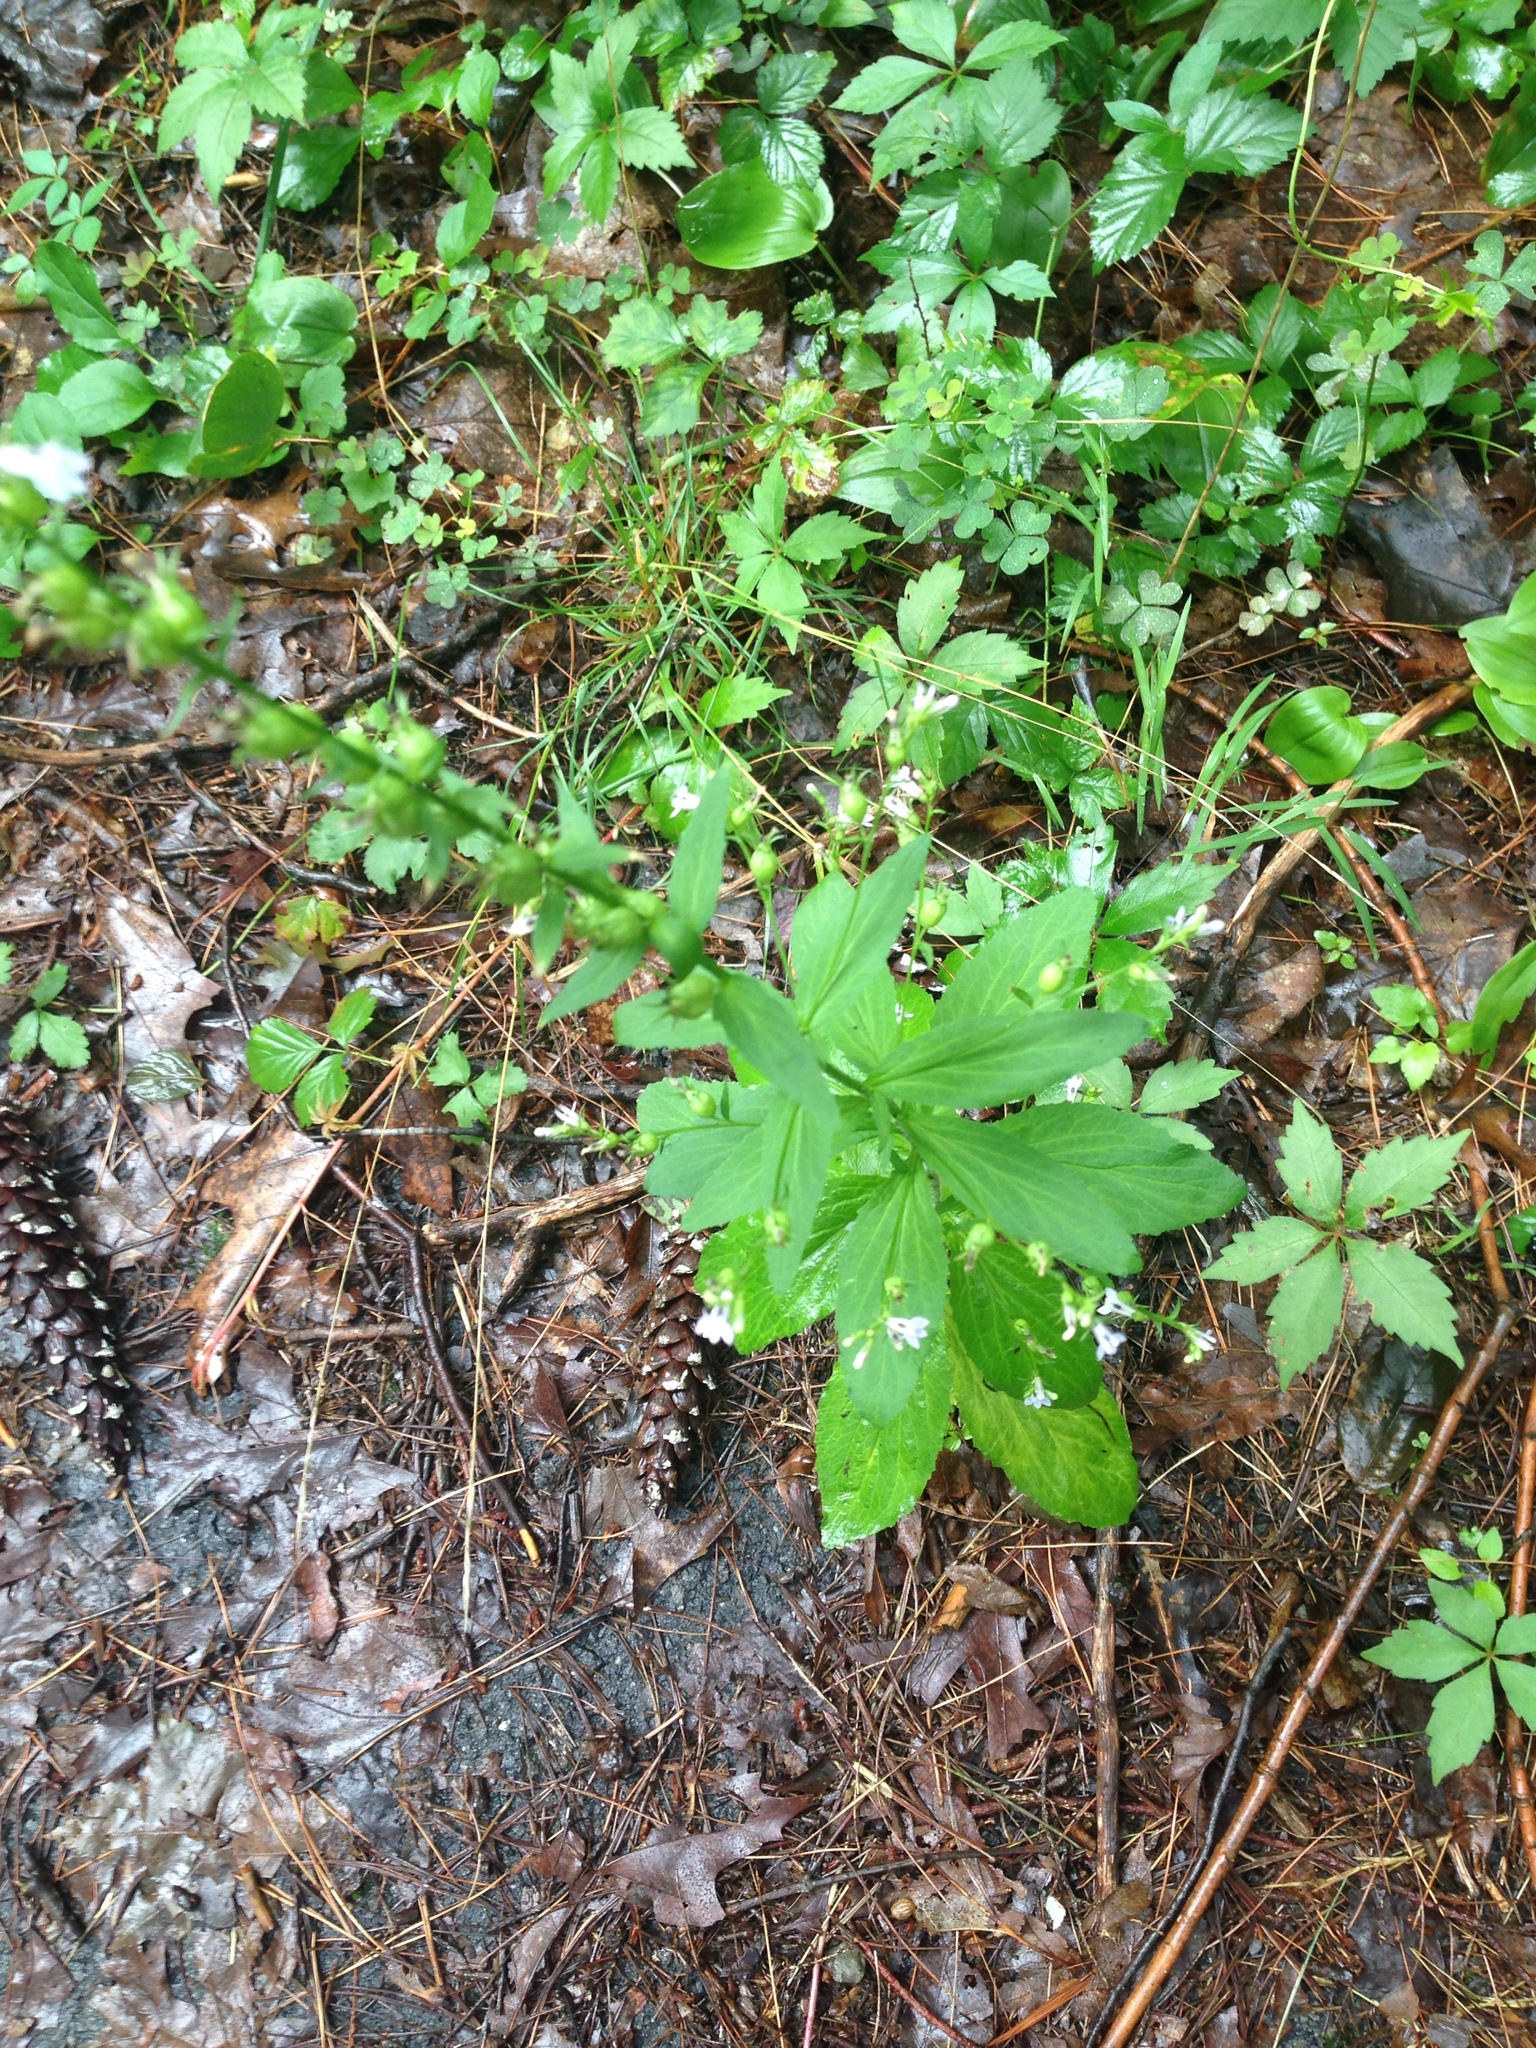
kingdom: Plantae
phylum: Tracheophyta
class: Magnoliopsida
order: Asterales
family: Campanulaceae
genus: Lobelia
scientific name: Lobelia inflata
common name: Indian tobacco
